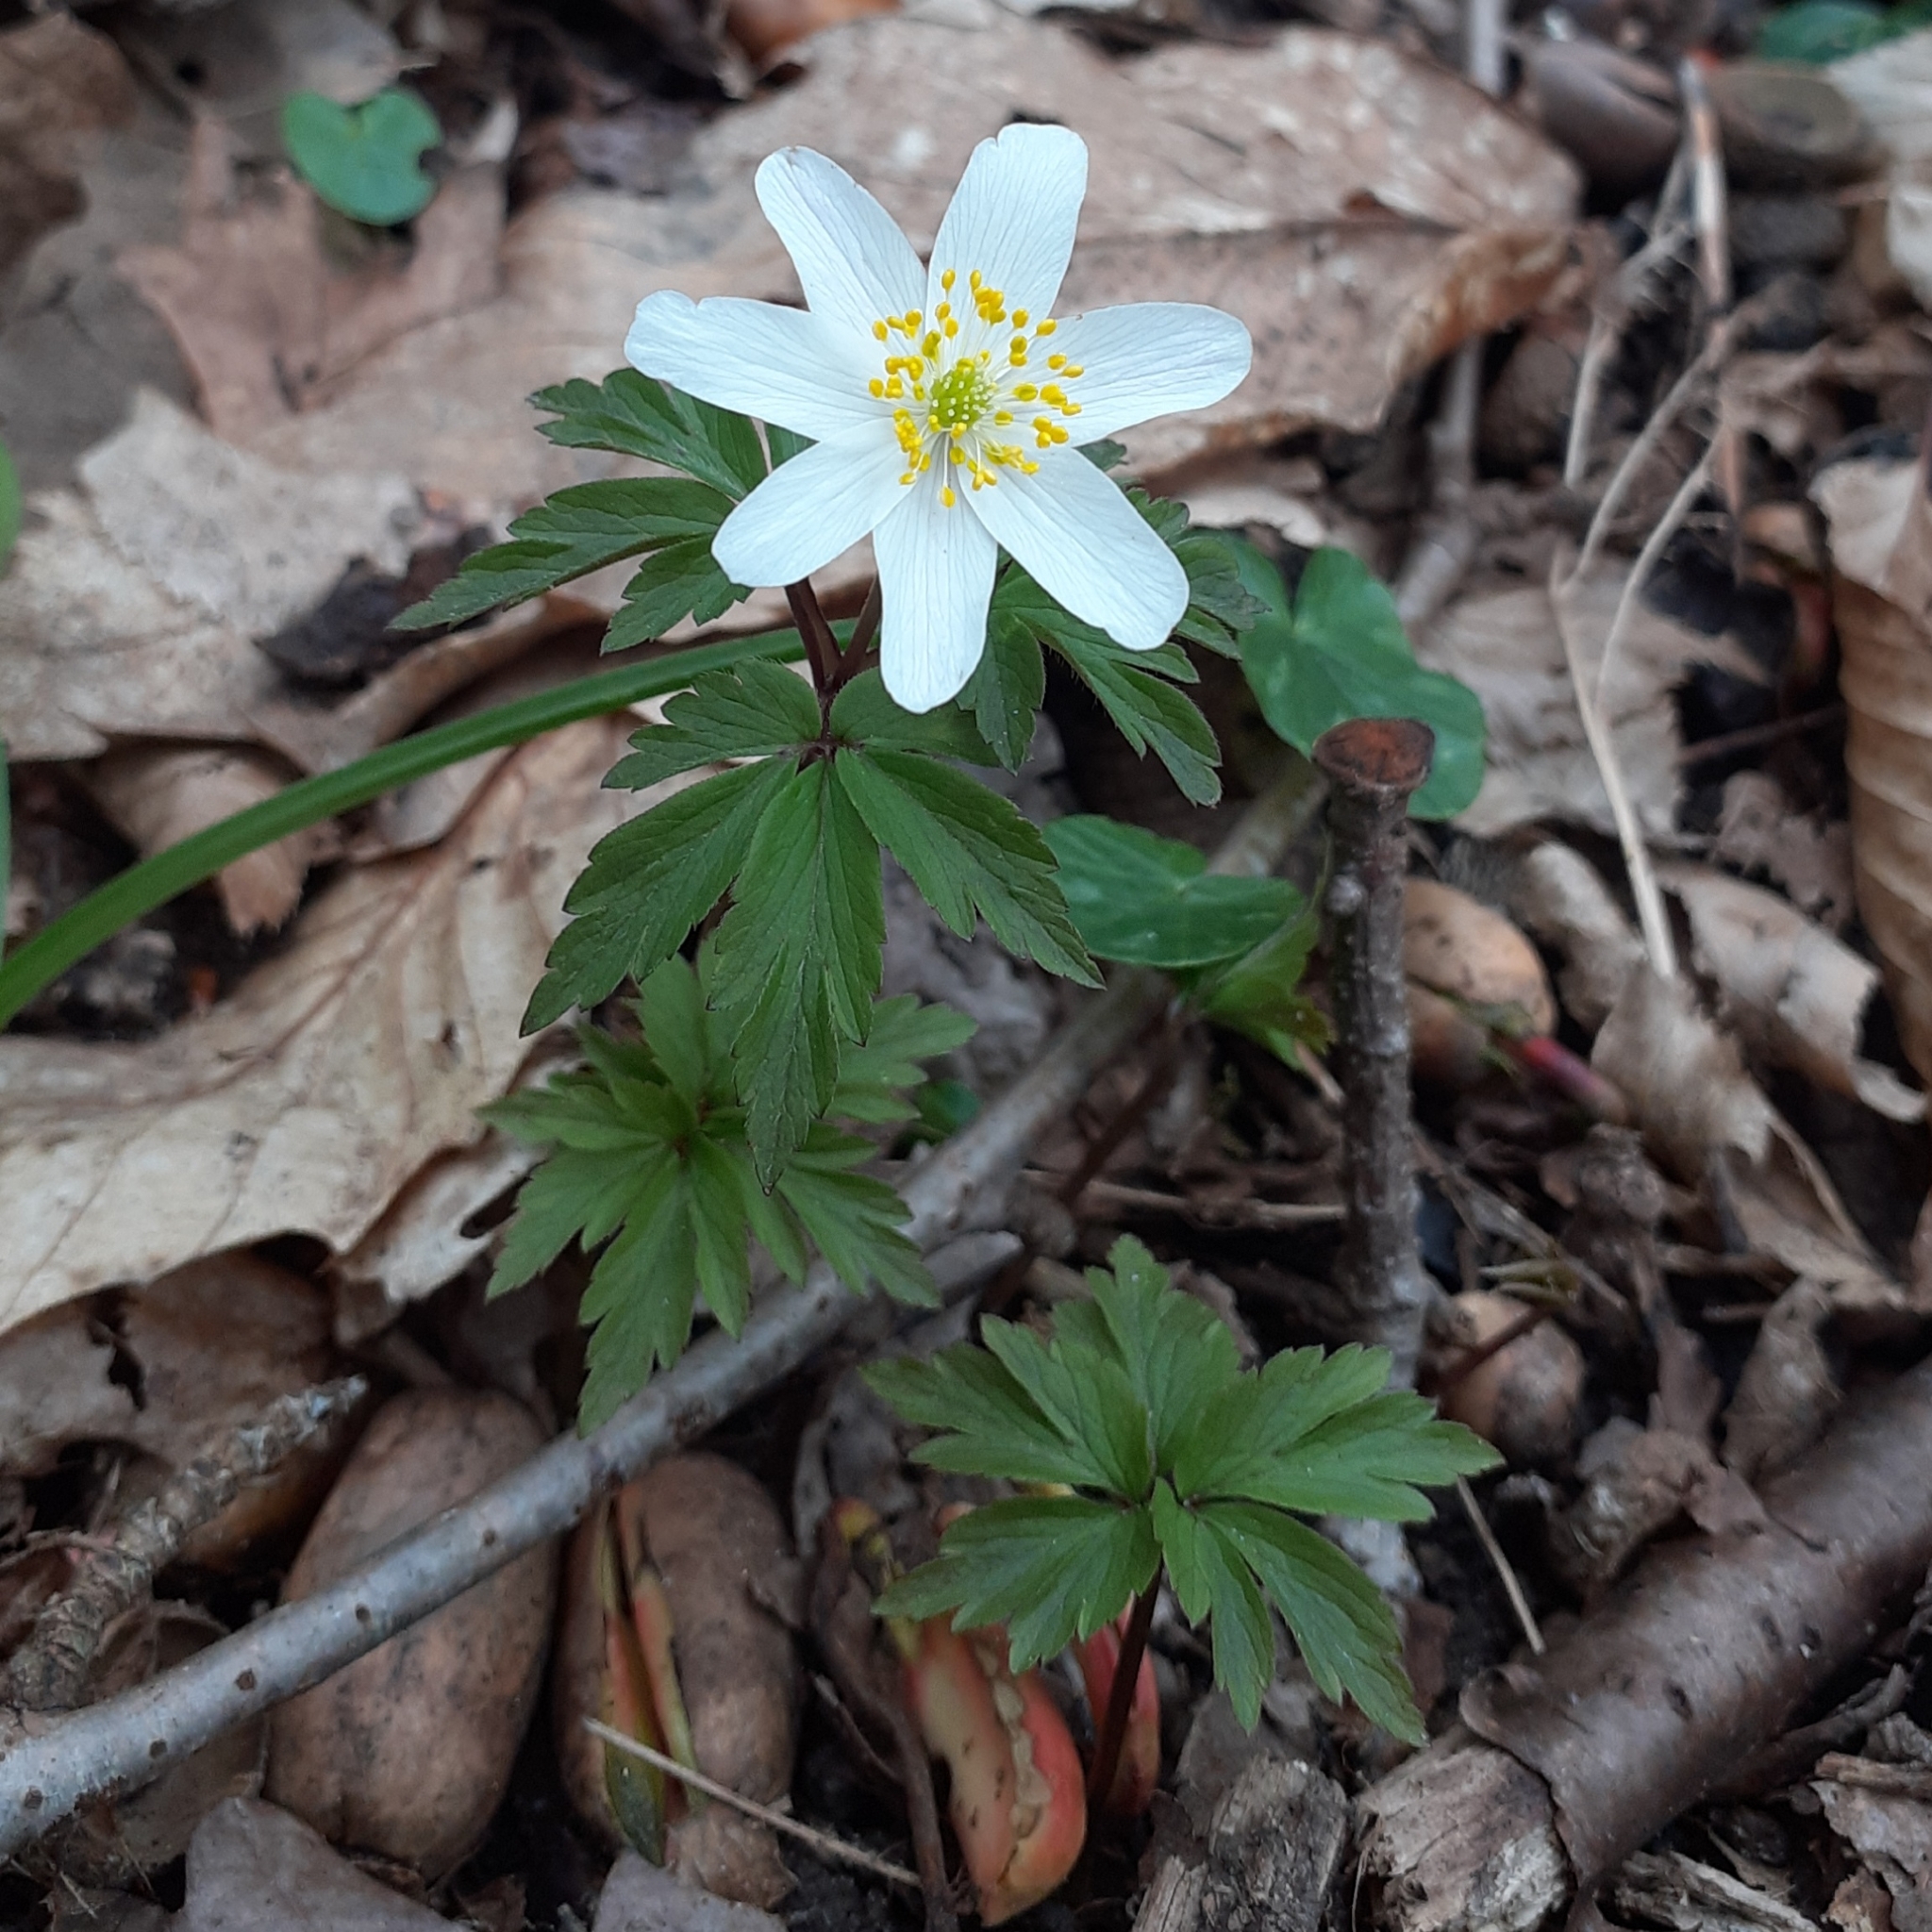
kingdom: Plantae
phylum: Tracheophyta
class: Magnoliopsida
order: Ranunculales
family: Ranunculaceae
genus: Anemone
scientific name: Anemone nemorosa
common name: Wood anemone
